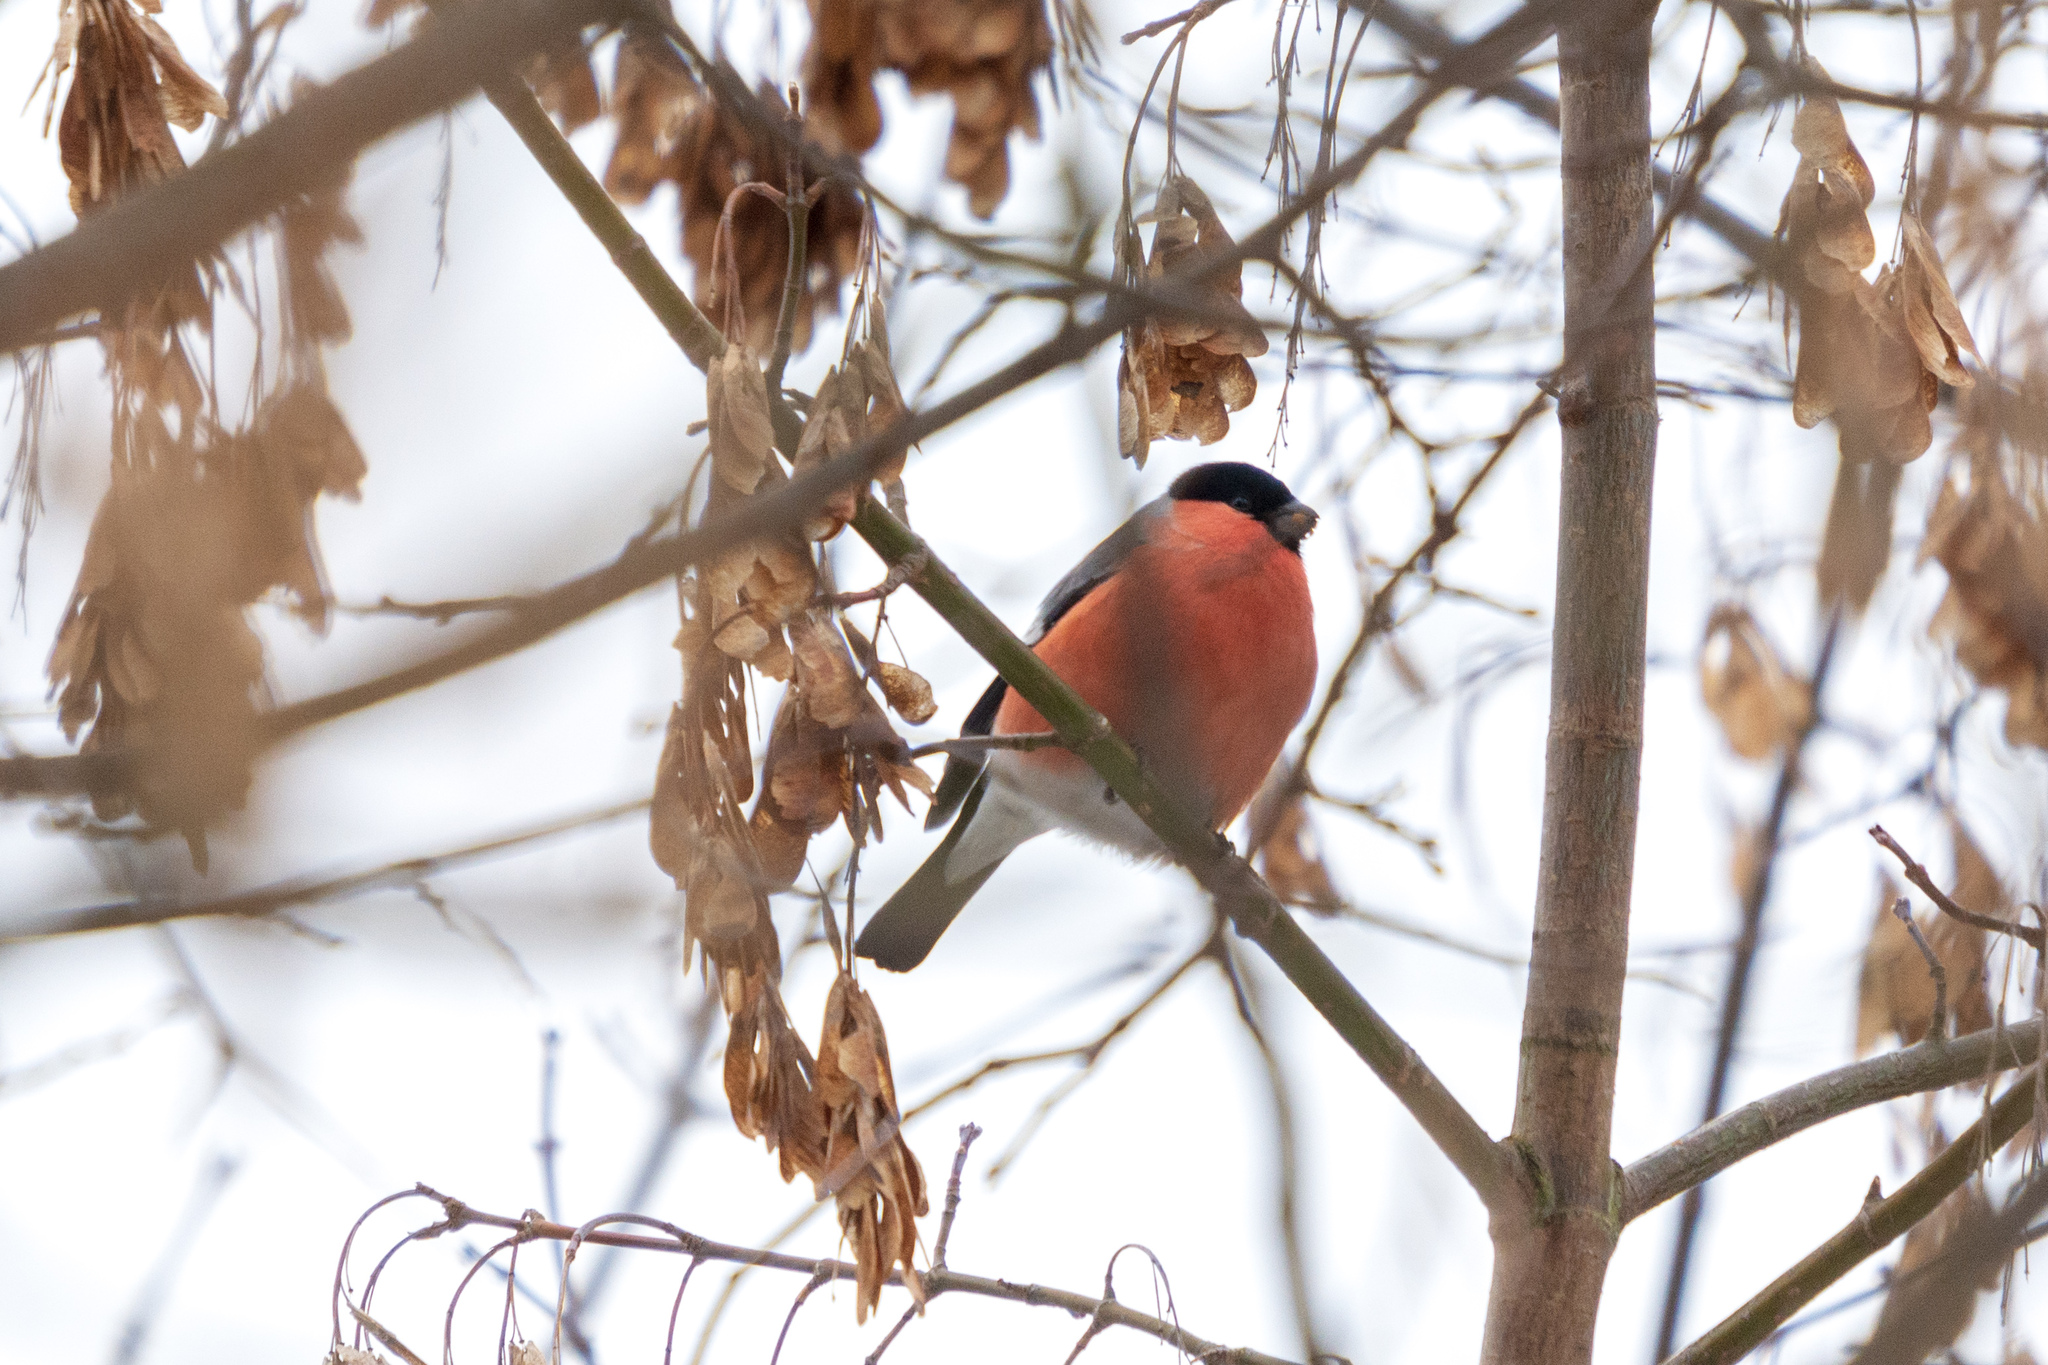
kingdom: Animalia
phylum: Chordata
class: Aves
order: Passeriformes
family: Fringillidae
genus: Pyrrhula
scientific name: Pyrrhula pyrrhula
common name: Eurasian bullfinch
